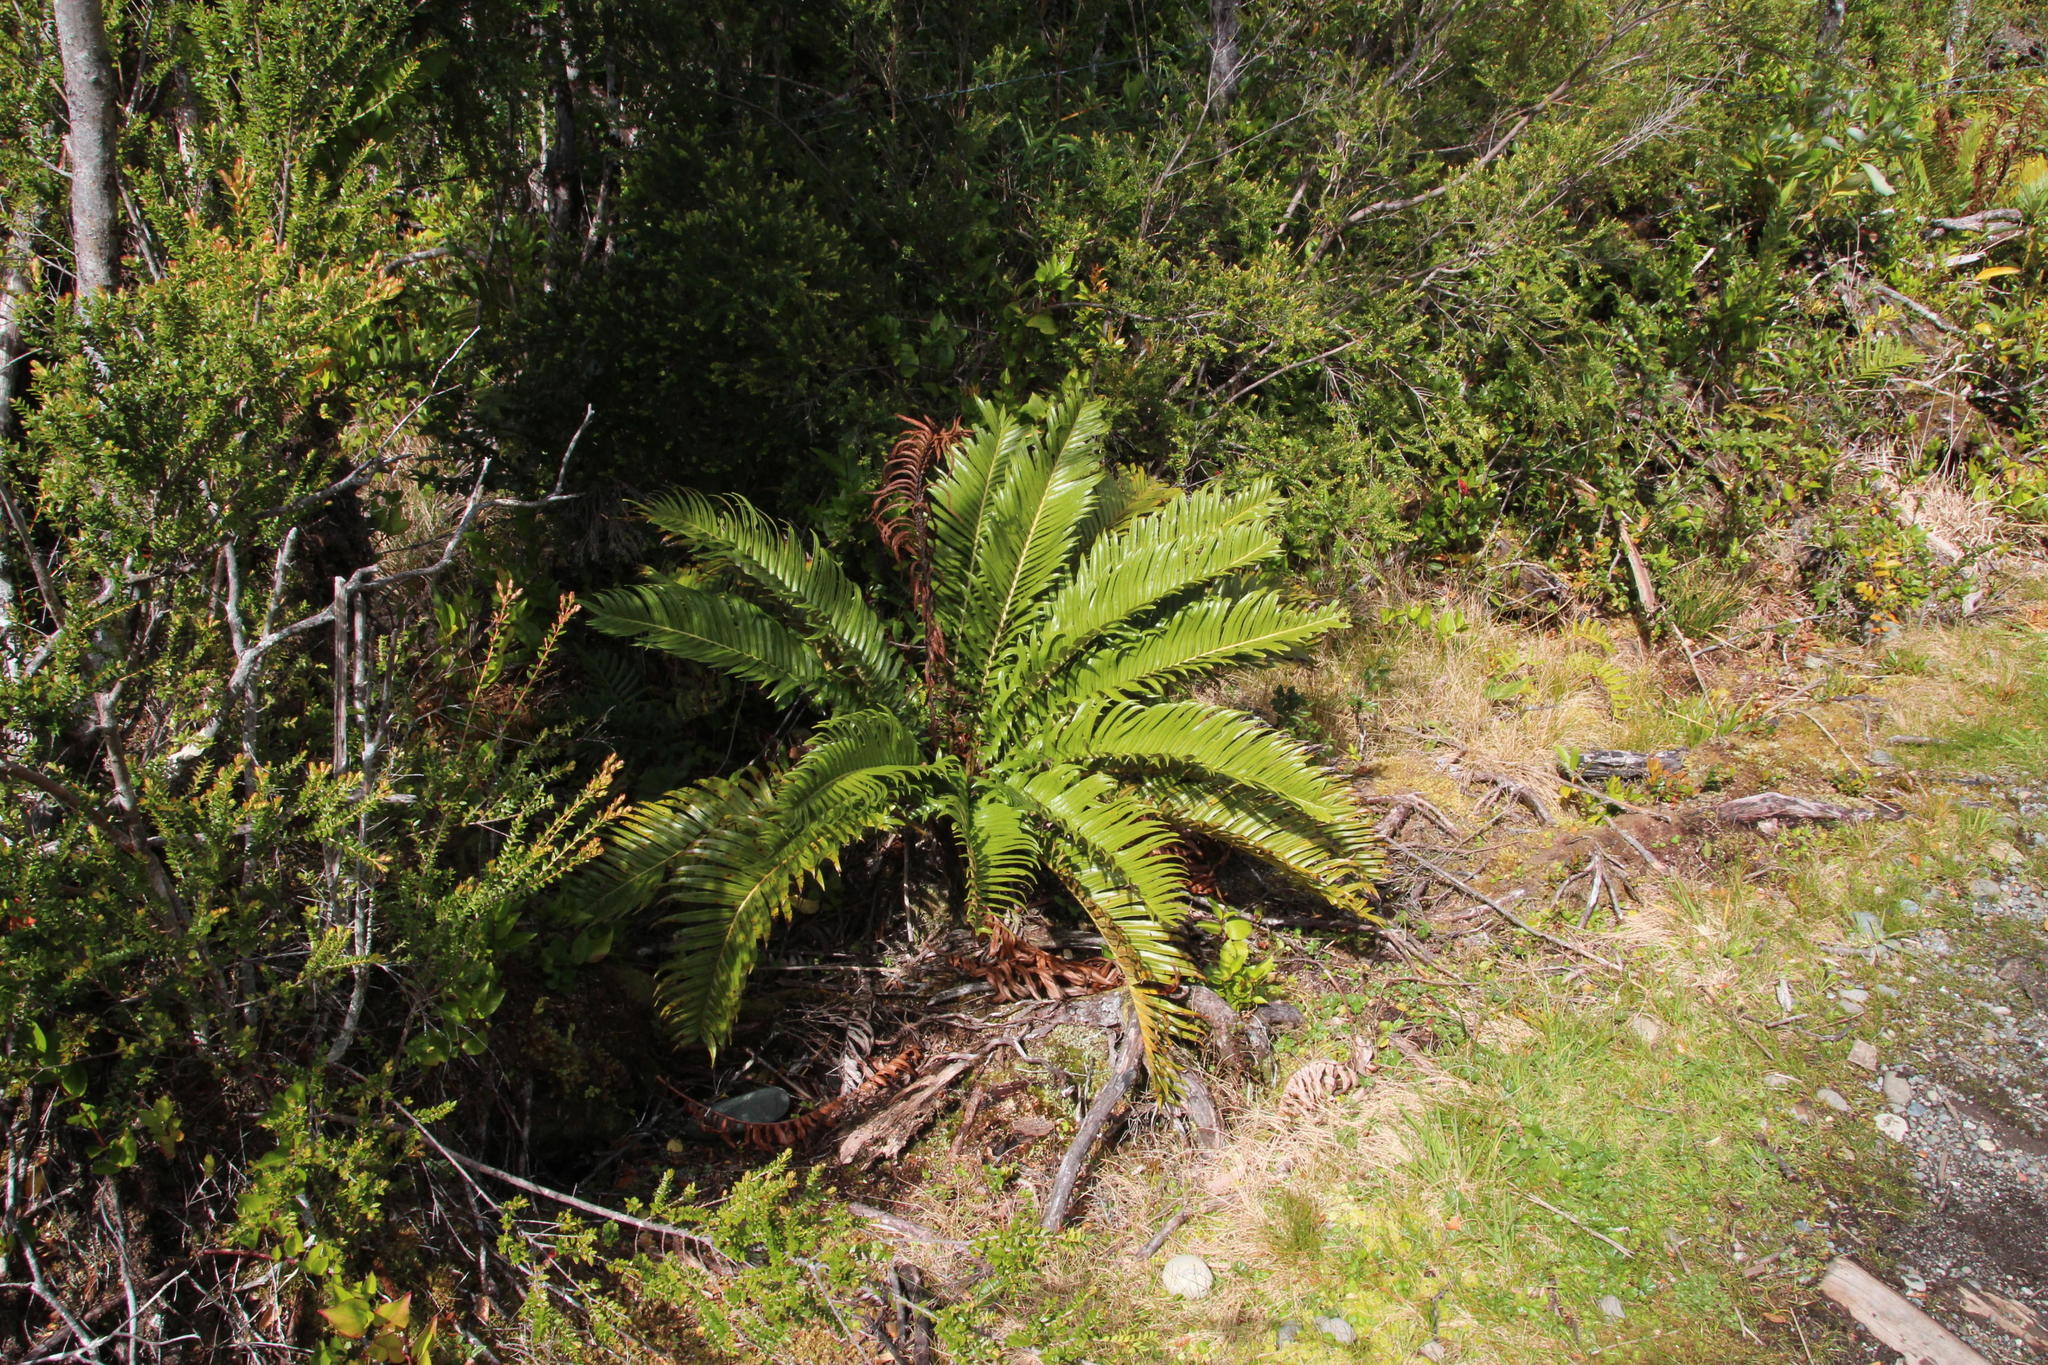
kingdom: Plantae
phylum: Tracheophyta
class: Polypodiopsida
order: Polypodiales
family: Blechnaceae
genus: Lomariocycas
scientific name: Lomariocycas magellanica
